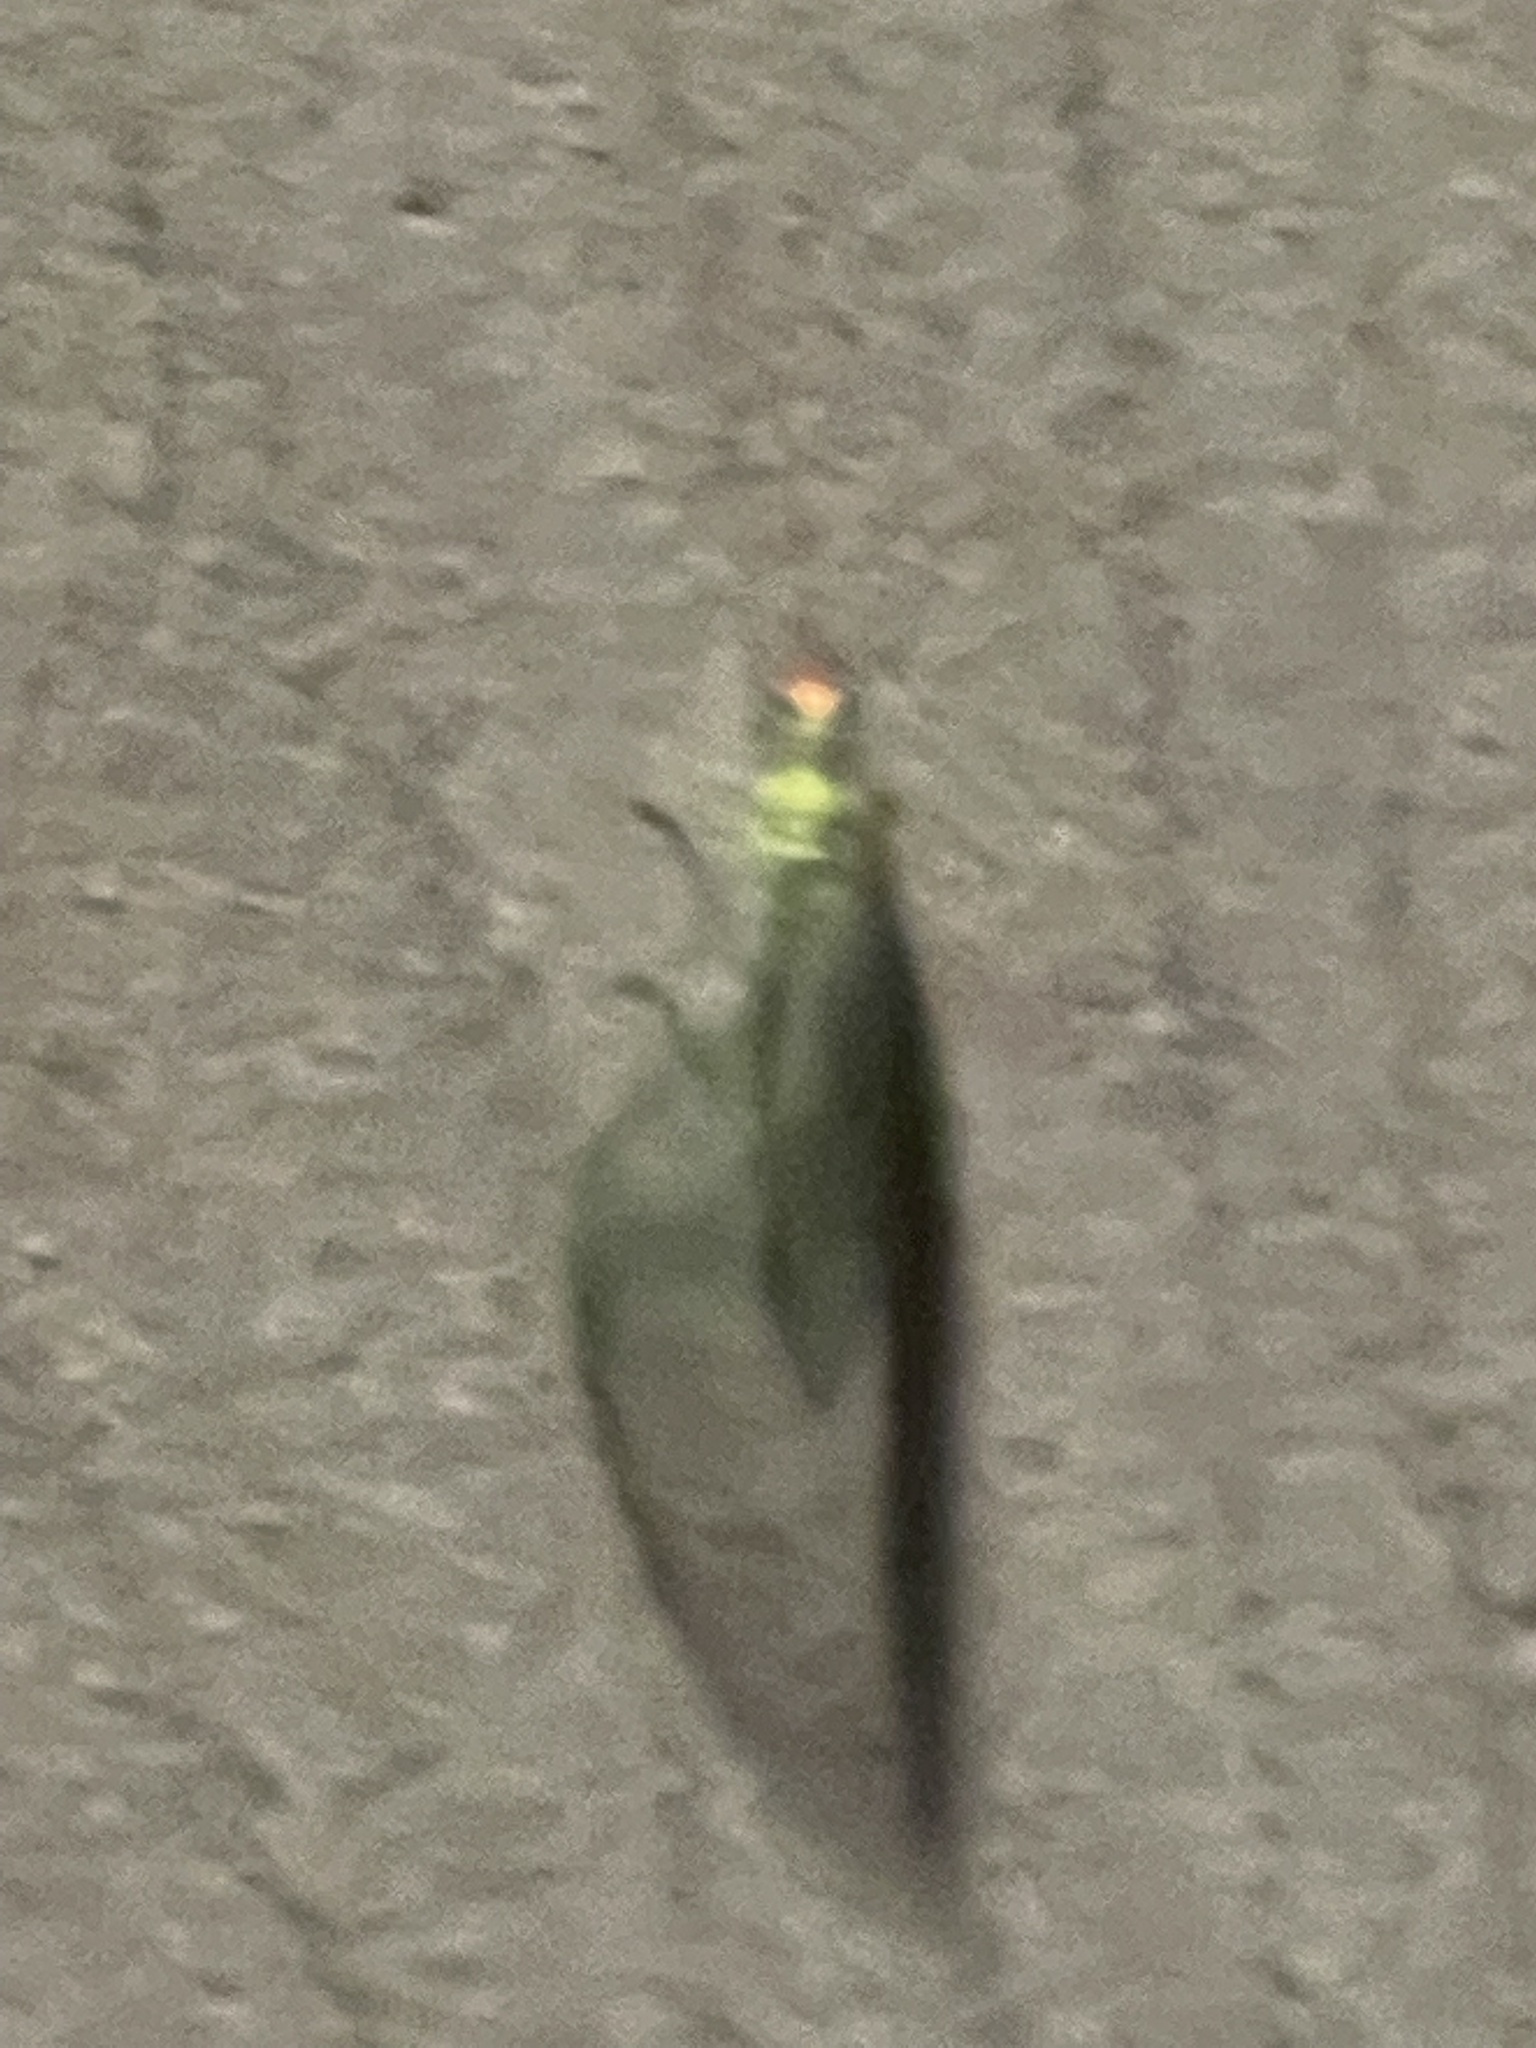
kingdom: Animalia
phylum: Arthropoda
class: Insecta
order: Neuroptera
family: Chrysopidae
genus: Chrysopa
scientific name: Chrysopa oculata
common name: Golden-eyed lacewing
